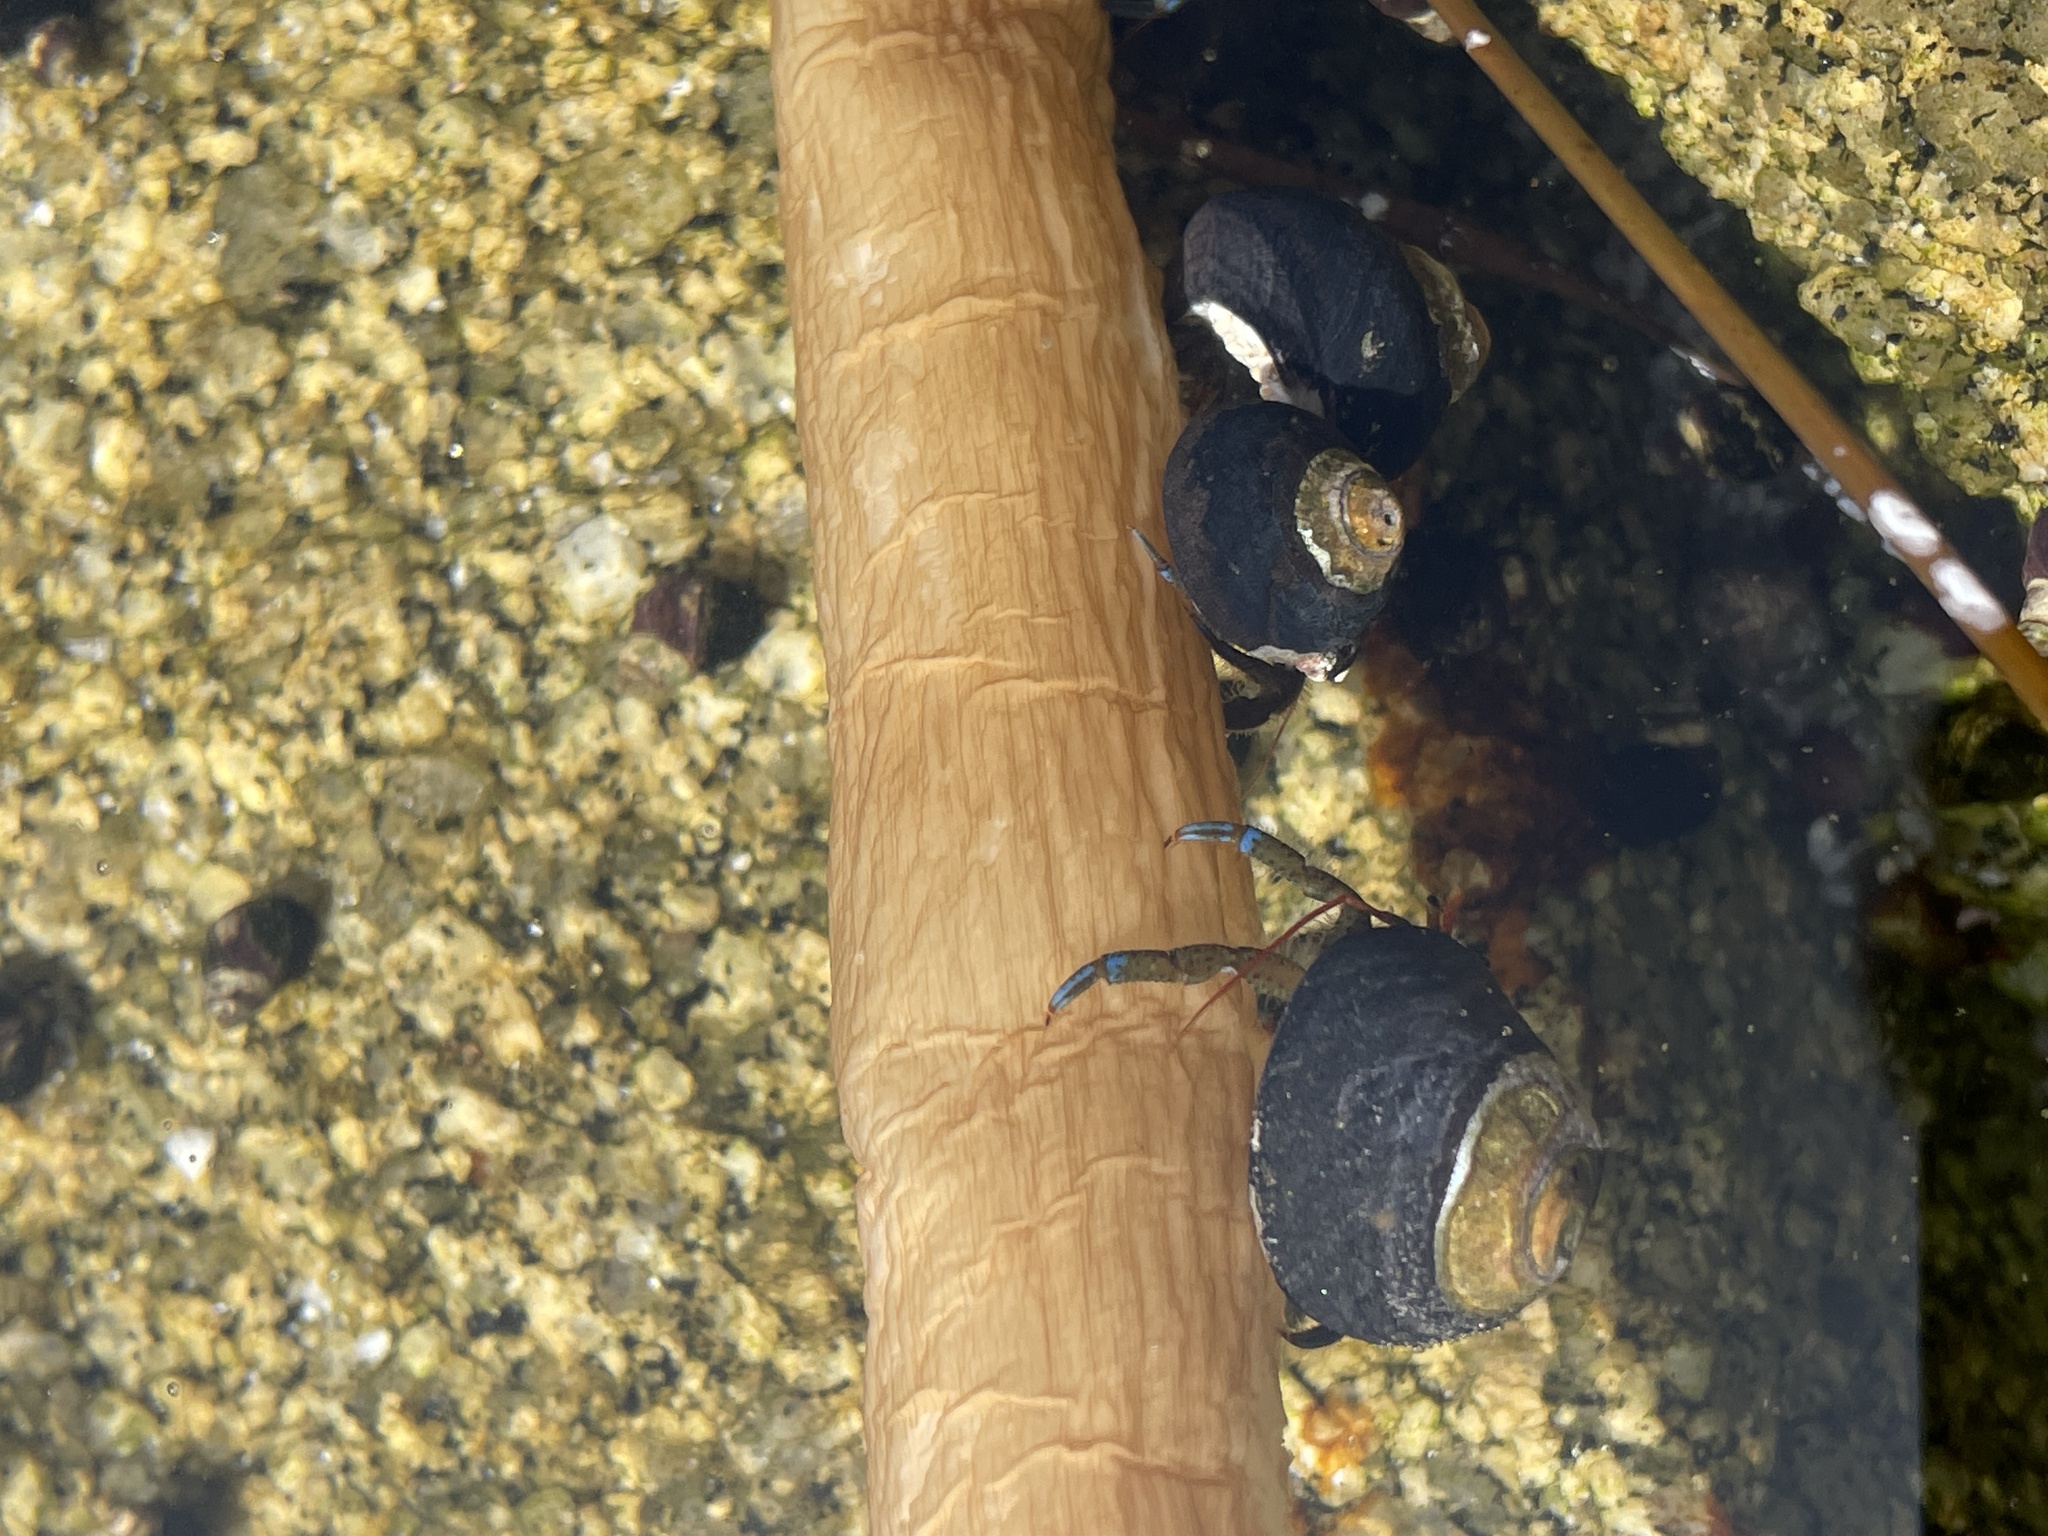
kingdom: Animalia
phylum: Arthropoda
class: Malacostraca
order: Decapoda
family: Paguridae
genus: Pagurus
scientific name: Pagurus samuelis
